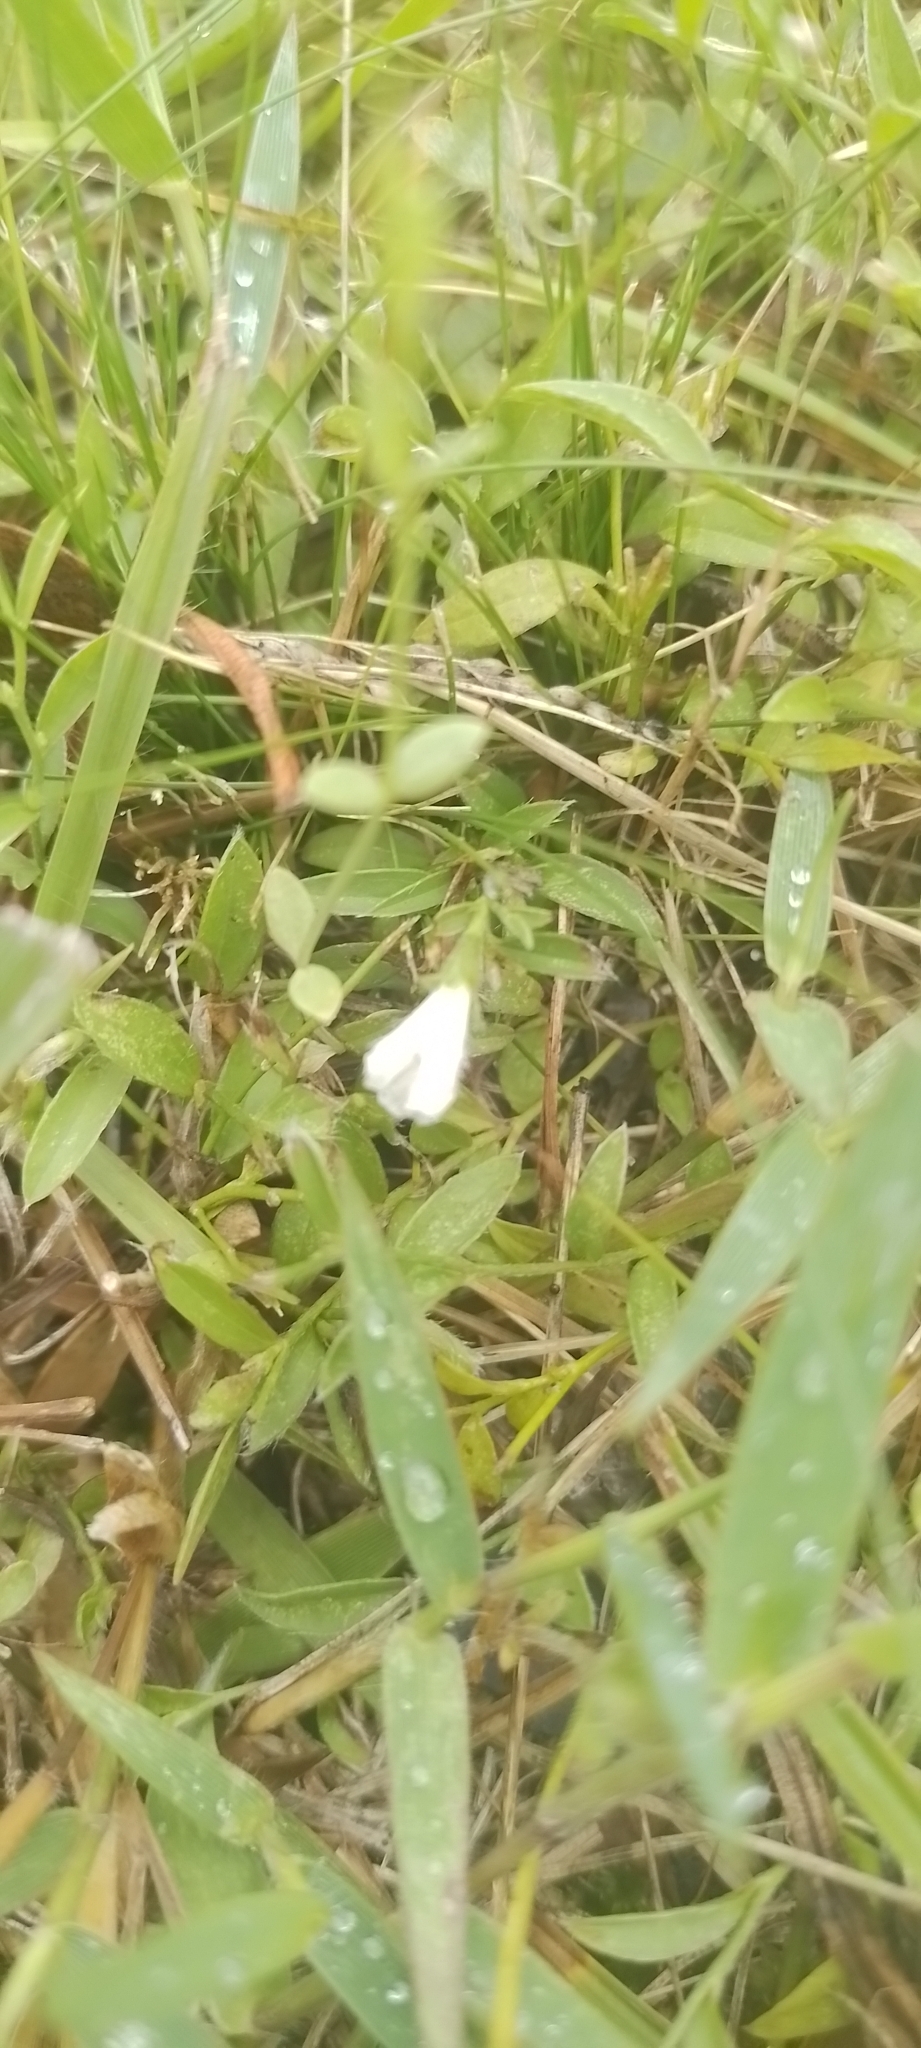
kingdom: Plantae
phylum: Tracheophyta
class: Magnoliopsida
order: Solanales
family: Convolvulaceae
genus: Evolvulus
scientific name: Evolvulus sericeus
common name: Blue dots
